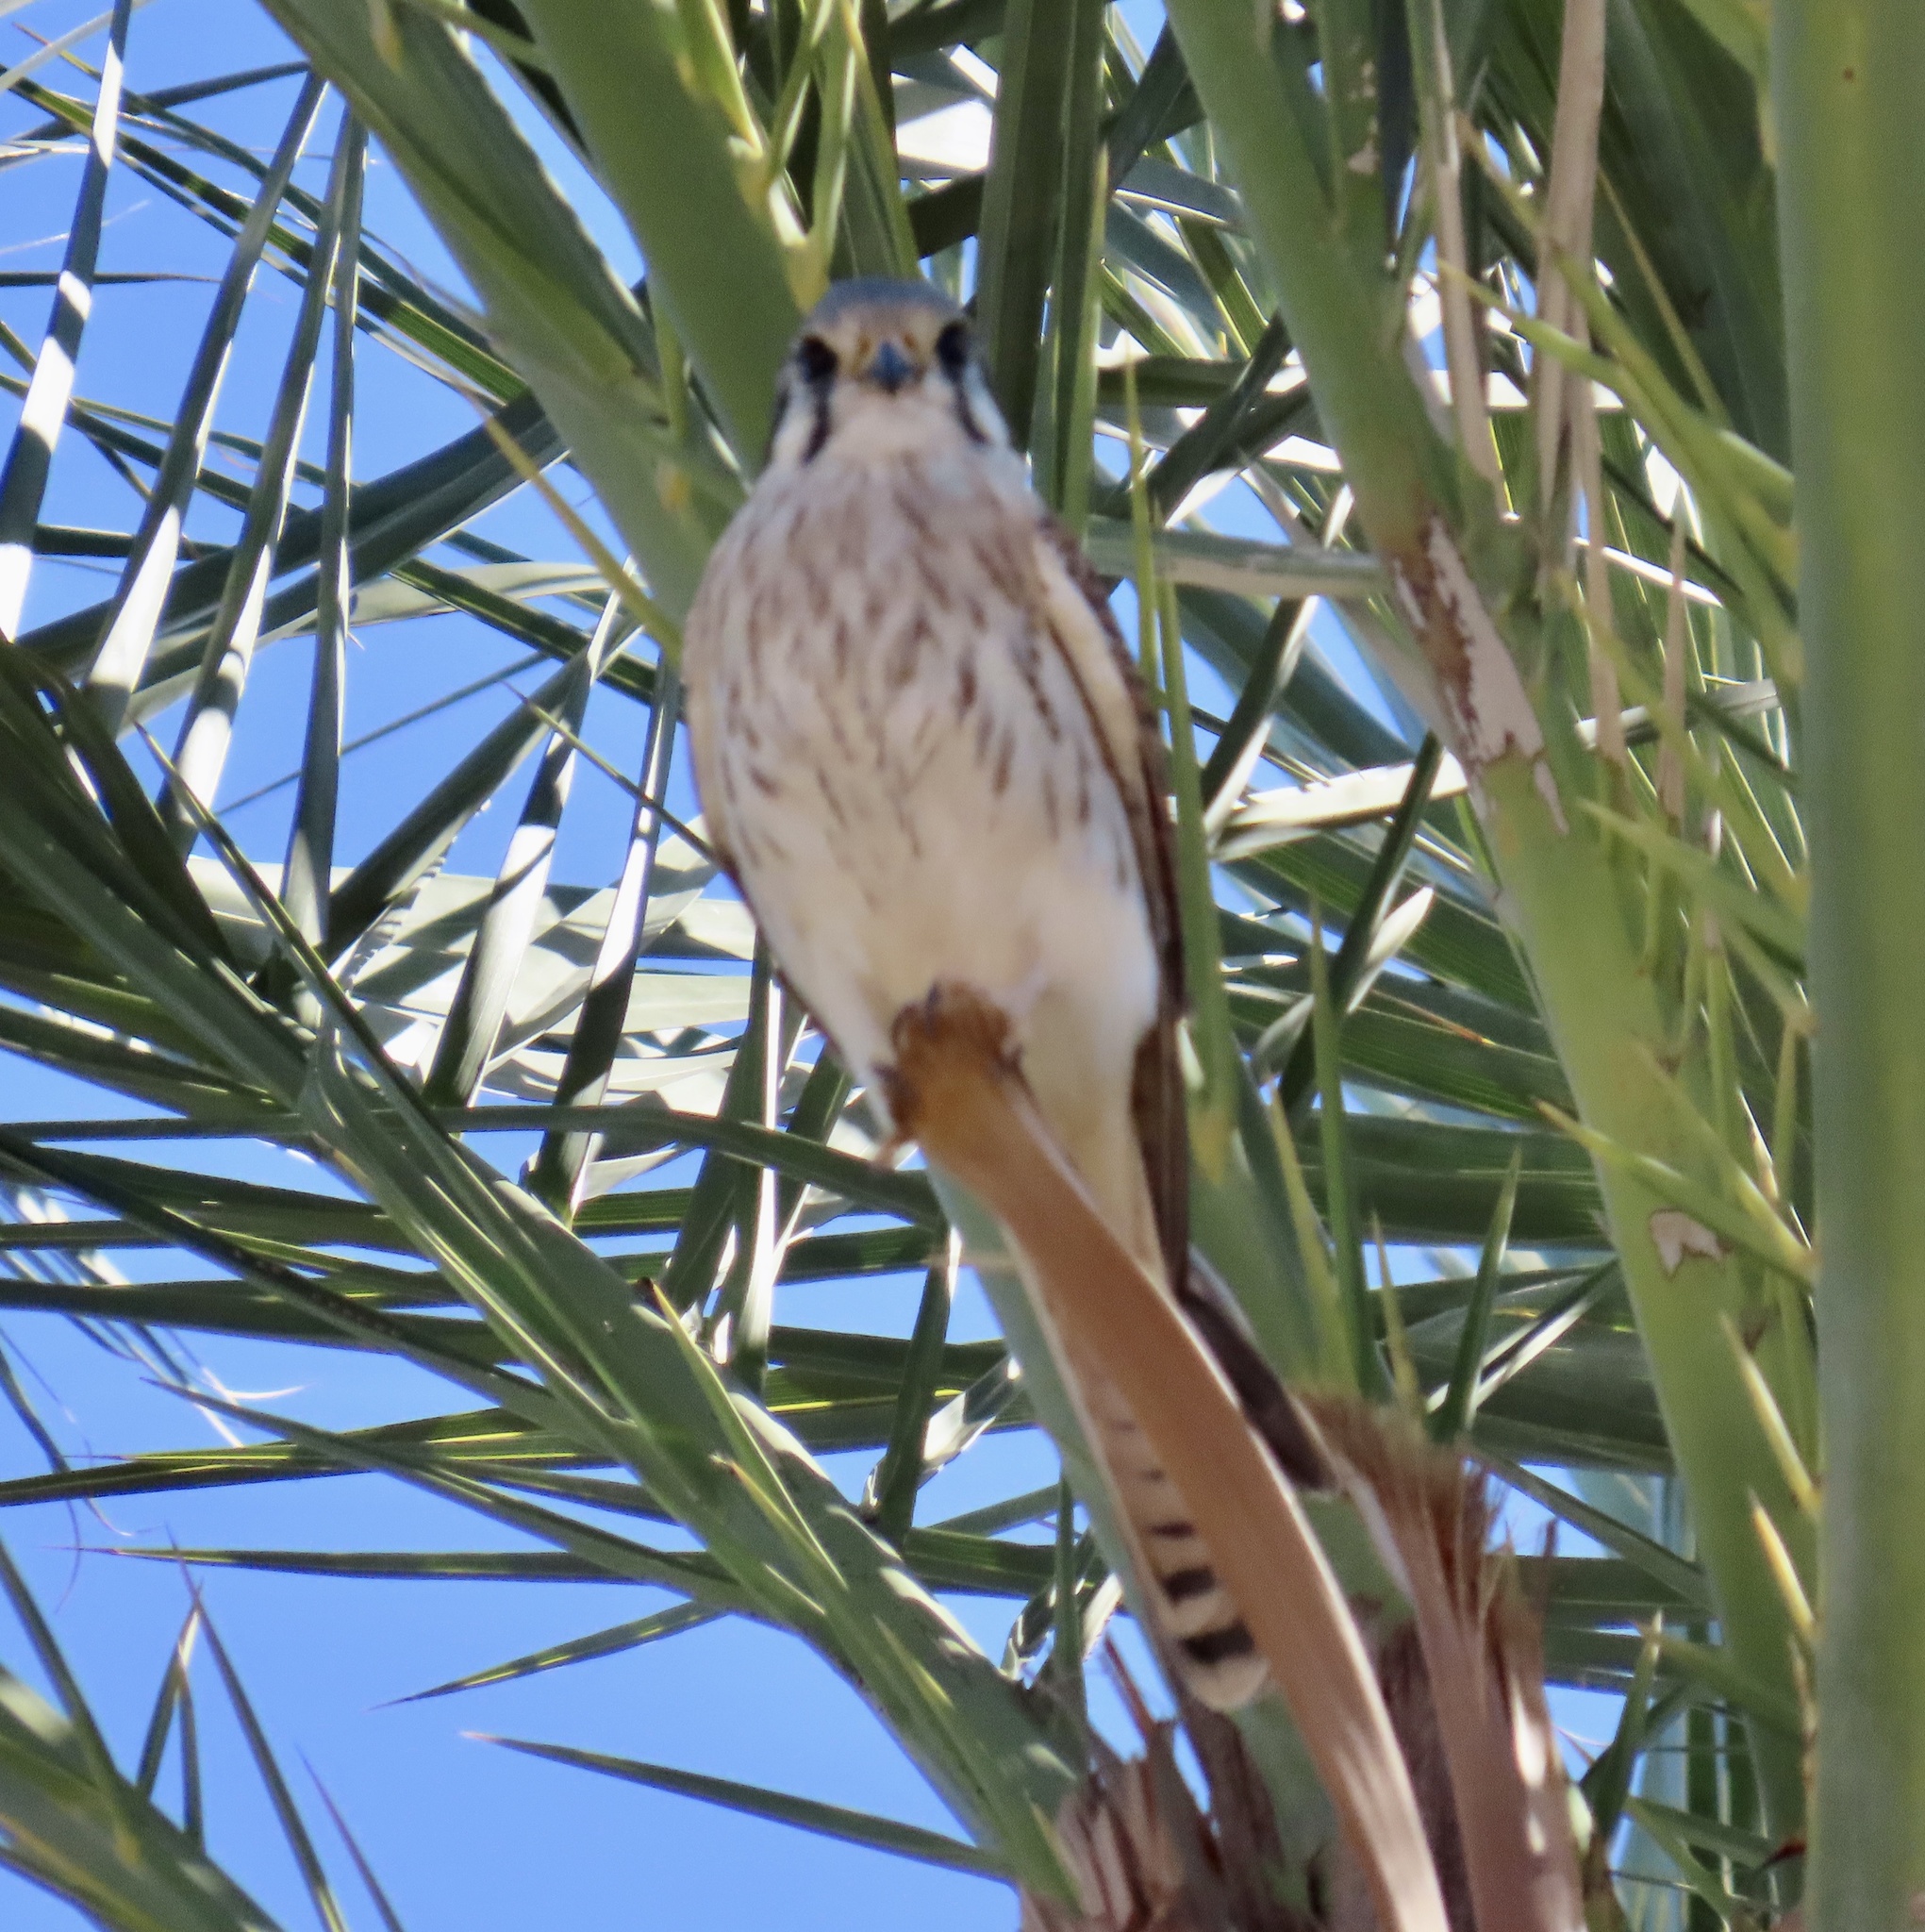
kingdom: Animalia
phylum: Chordata
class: Aves
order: Falconiformes
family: Falconidae
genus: Falco
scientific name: Falco sparverius
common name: American kestrel
